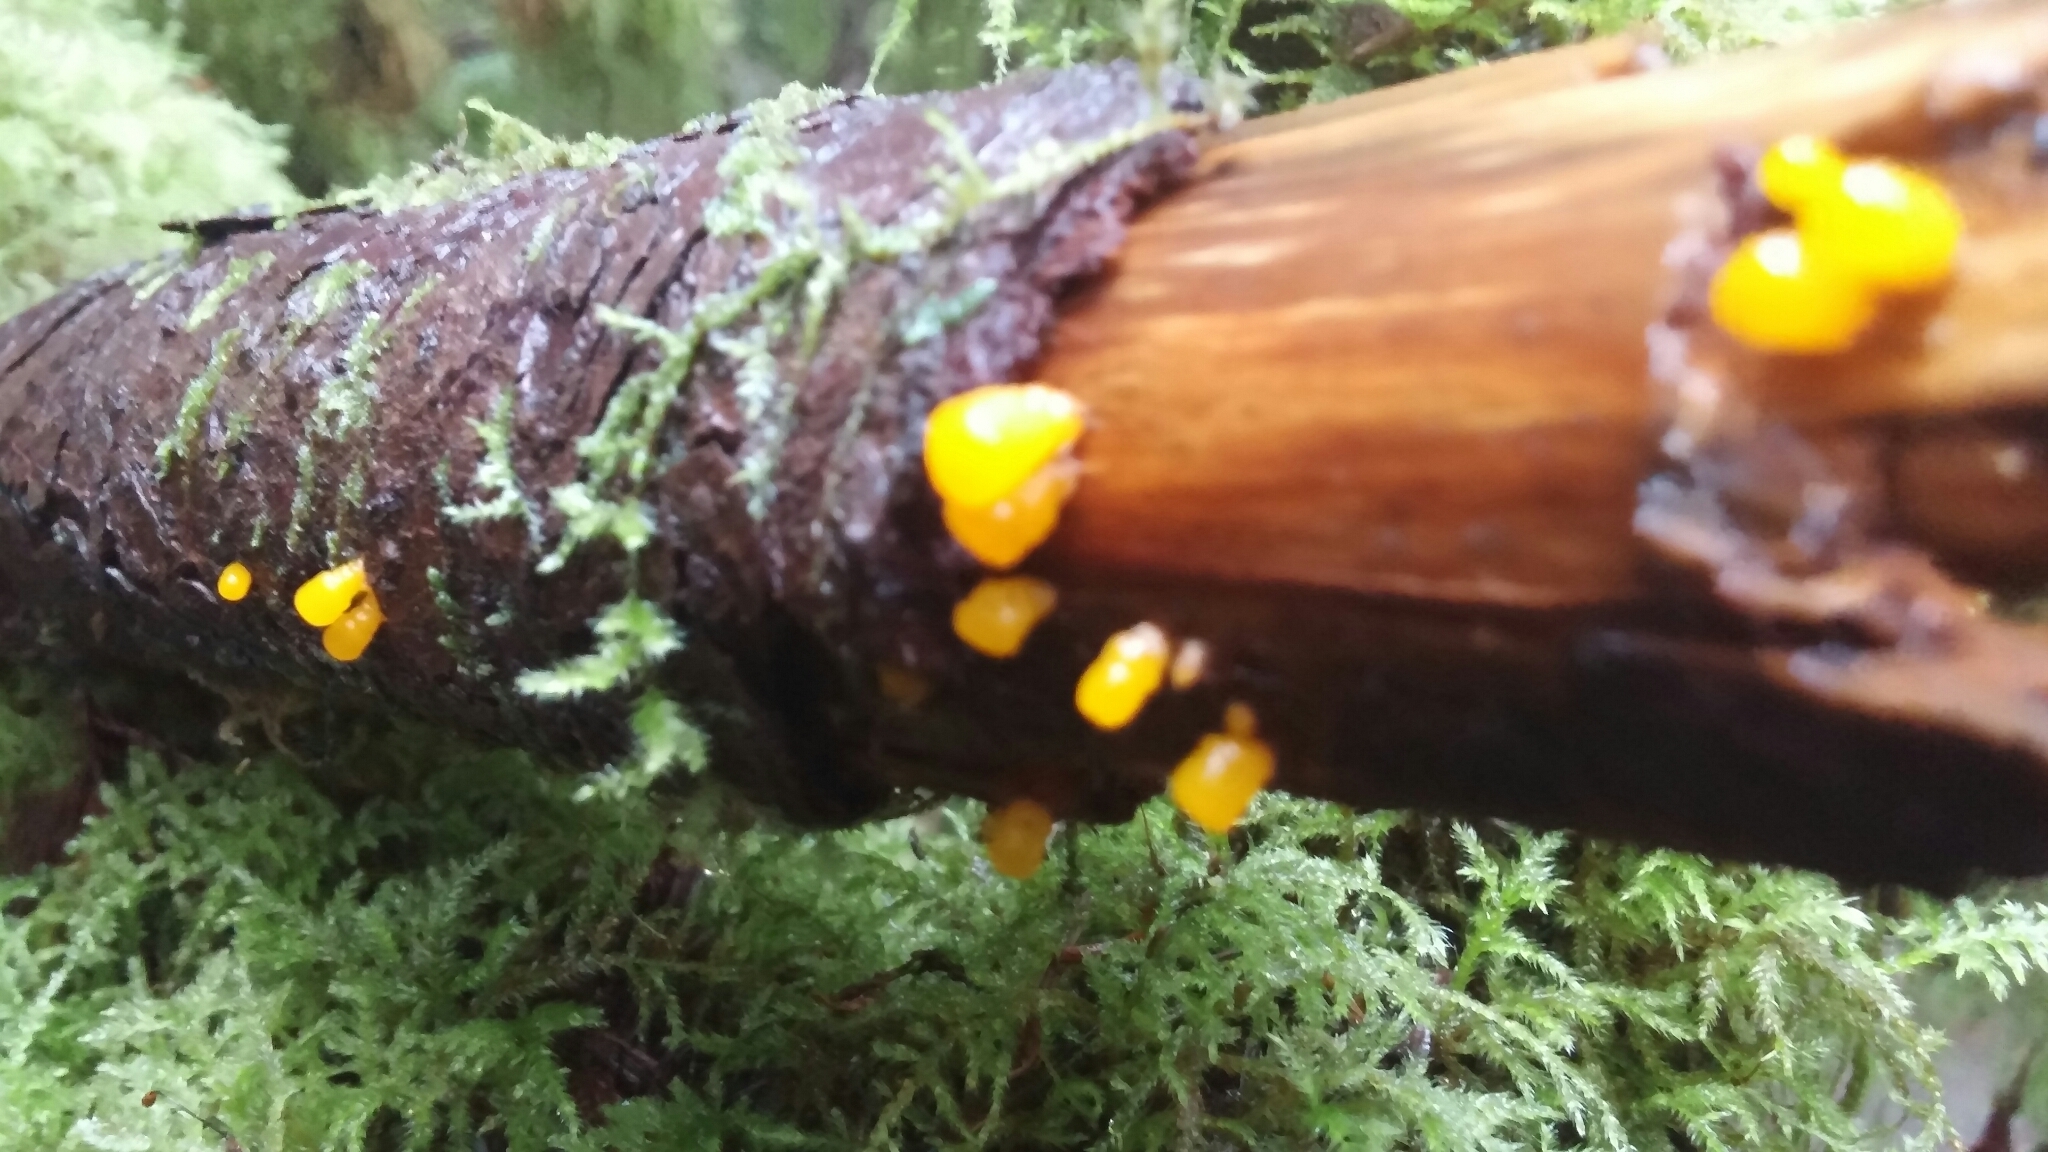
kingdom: Fungi
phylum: Basidiomycota
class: Dacrymycetes
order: Dacrymycetales
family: Dacrymycetaceae
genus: Dacrymyces
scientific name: Dacrymyces chrysospermus
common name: Orange jelly spot
